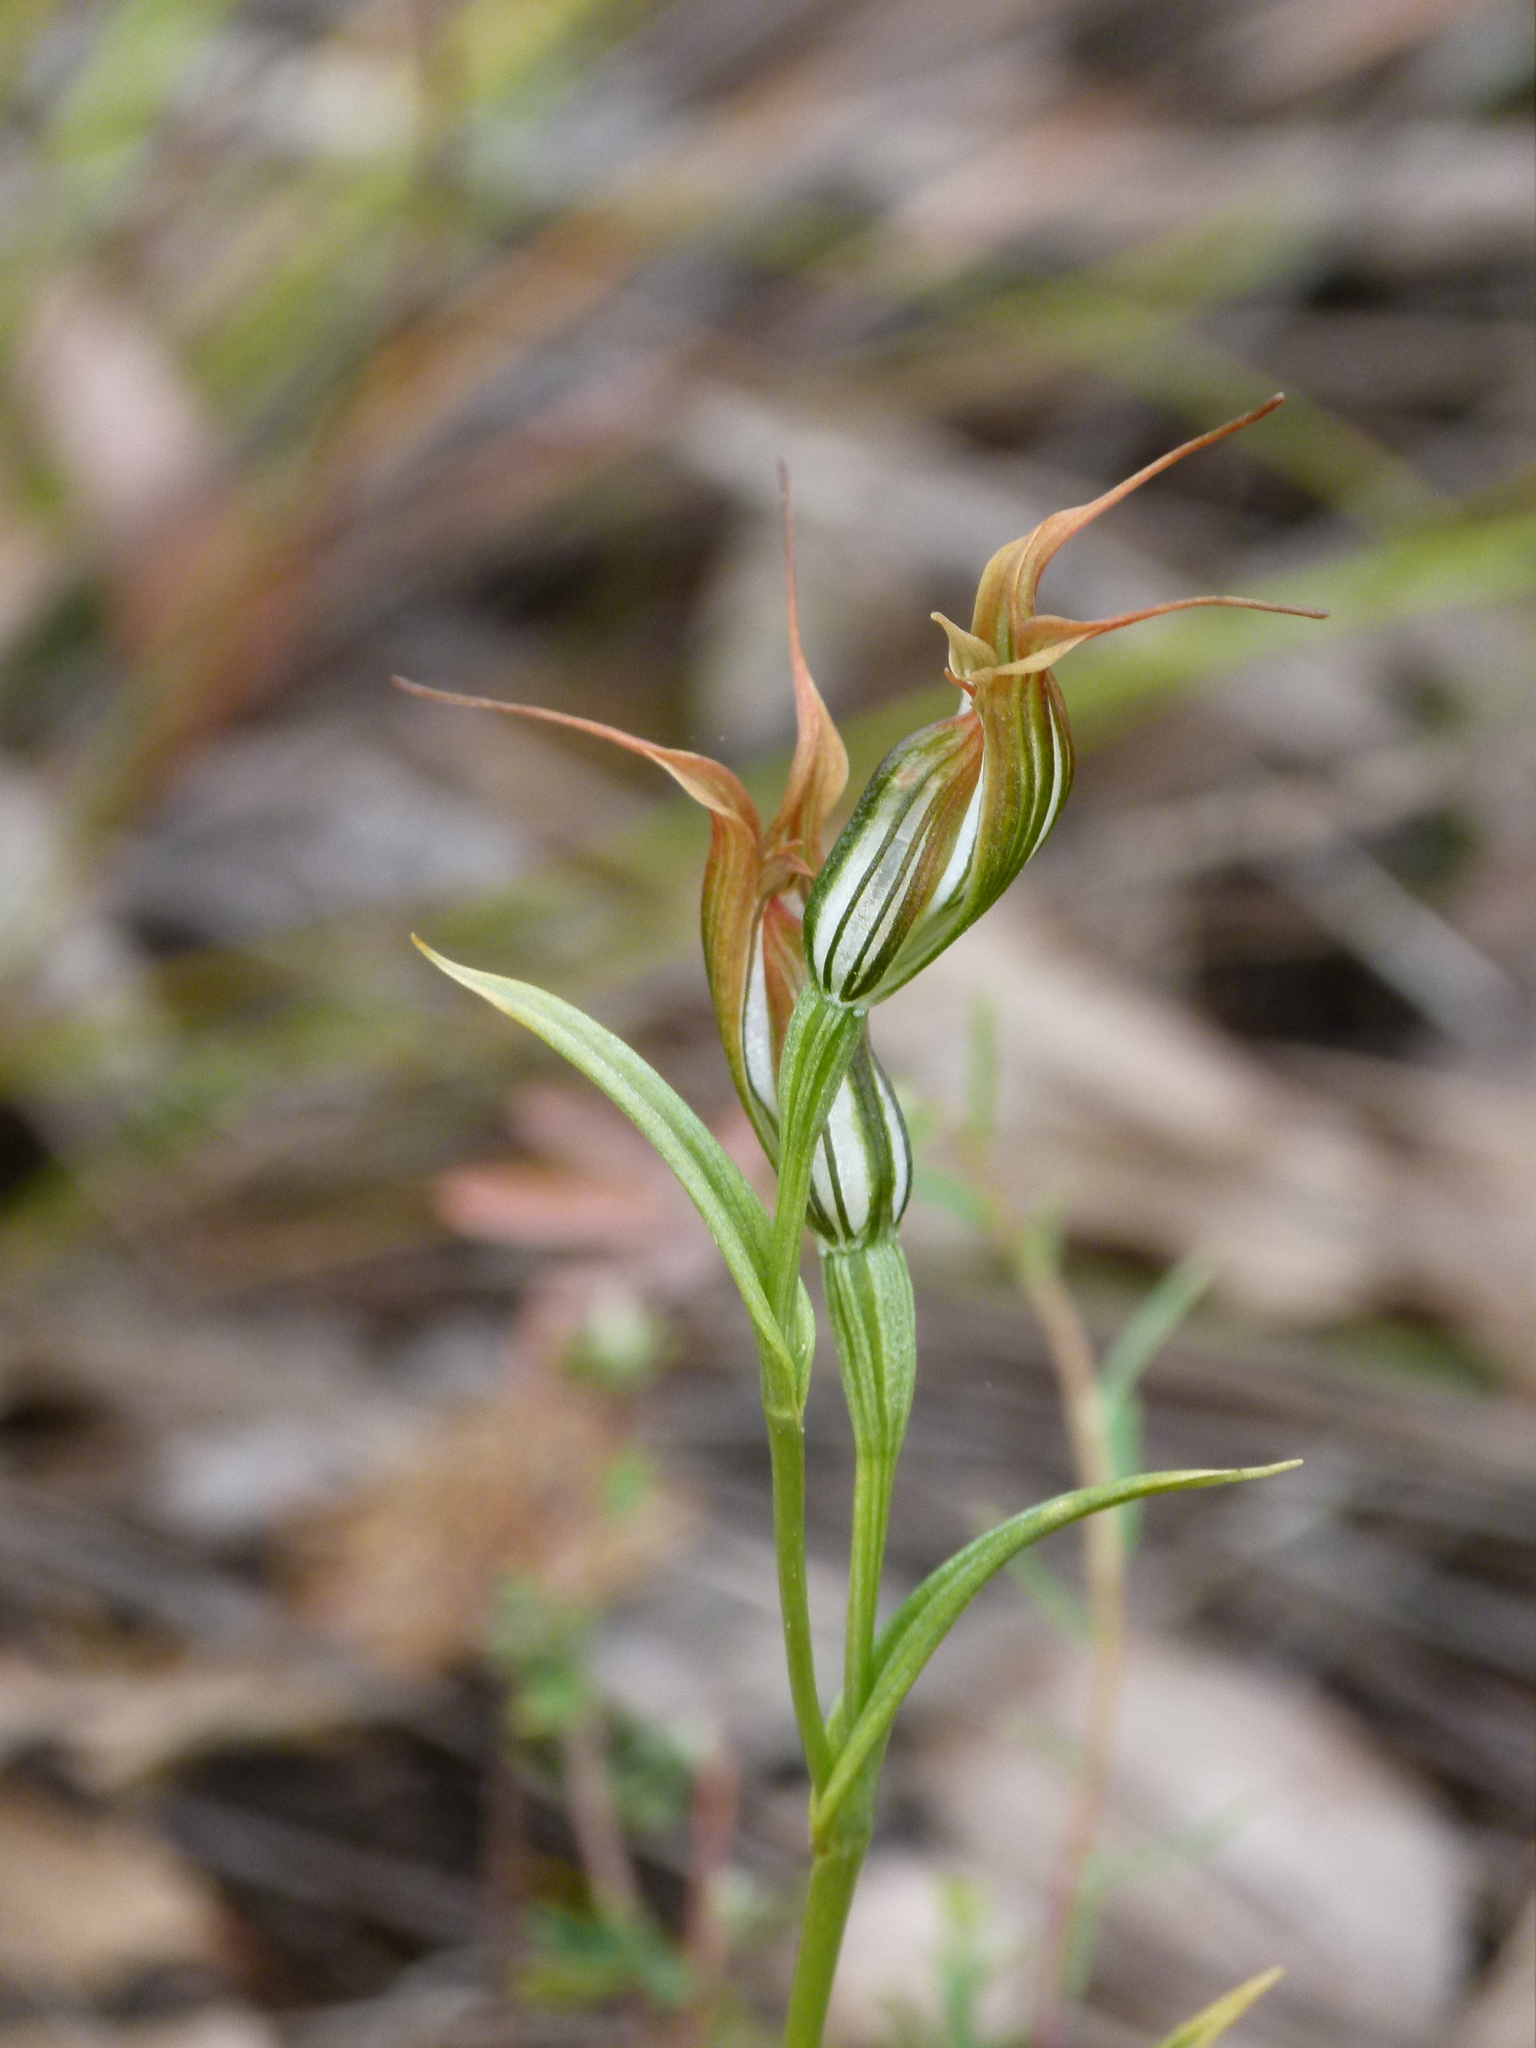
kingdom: Plantae
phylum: Tracheophyta
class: Liliopsida
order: Asparagales
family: Orchidaceae
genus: Pterostylis
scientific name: Pterostylis recurva
